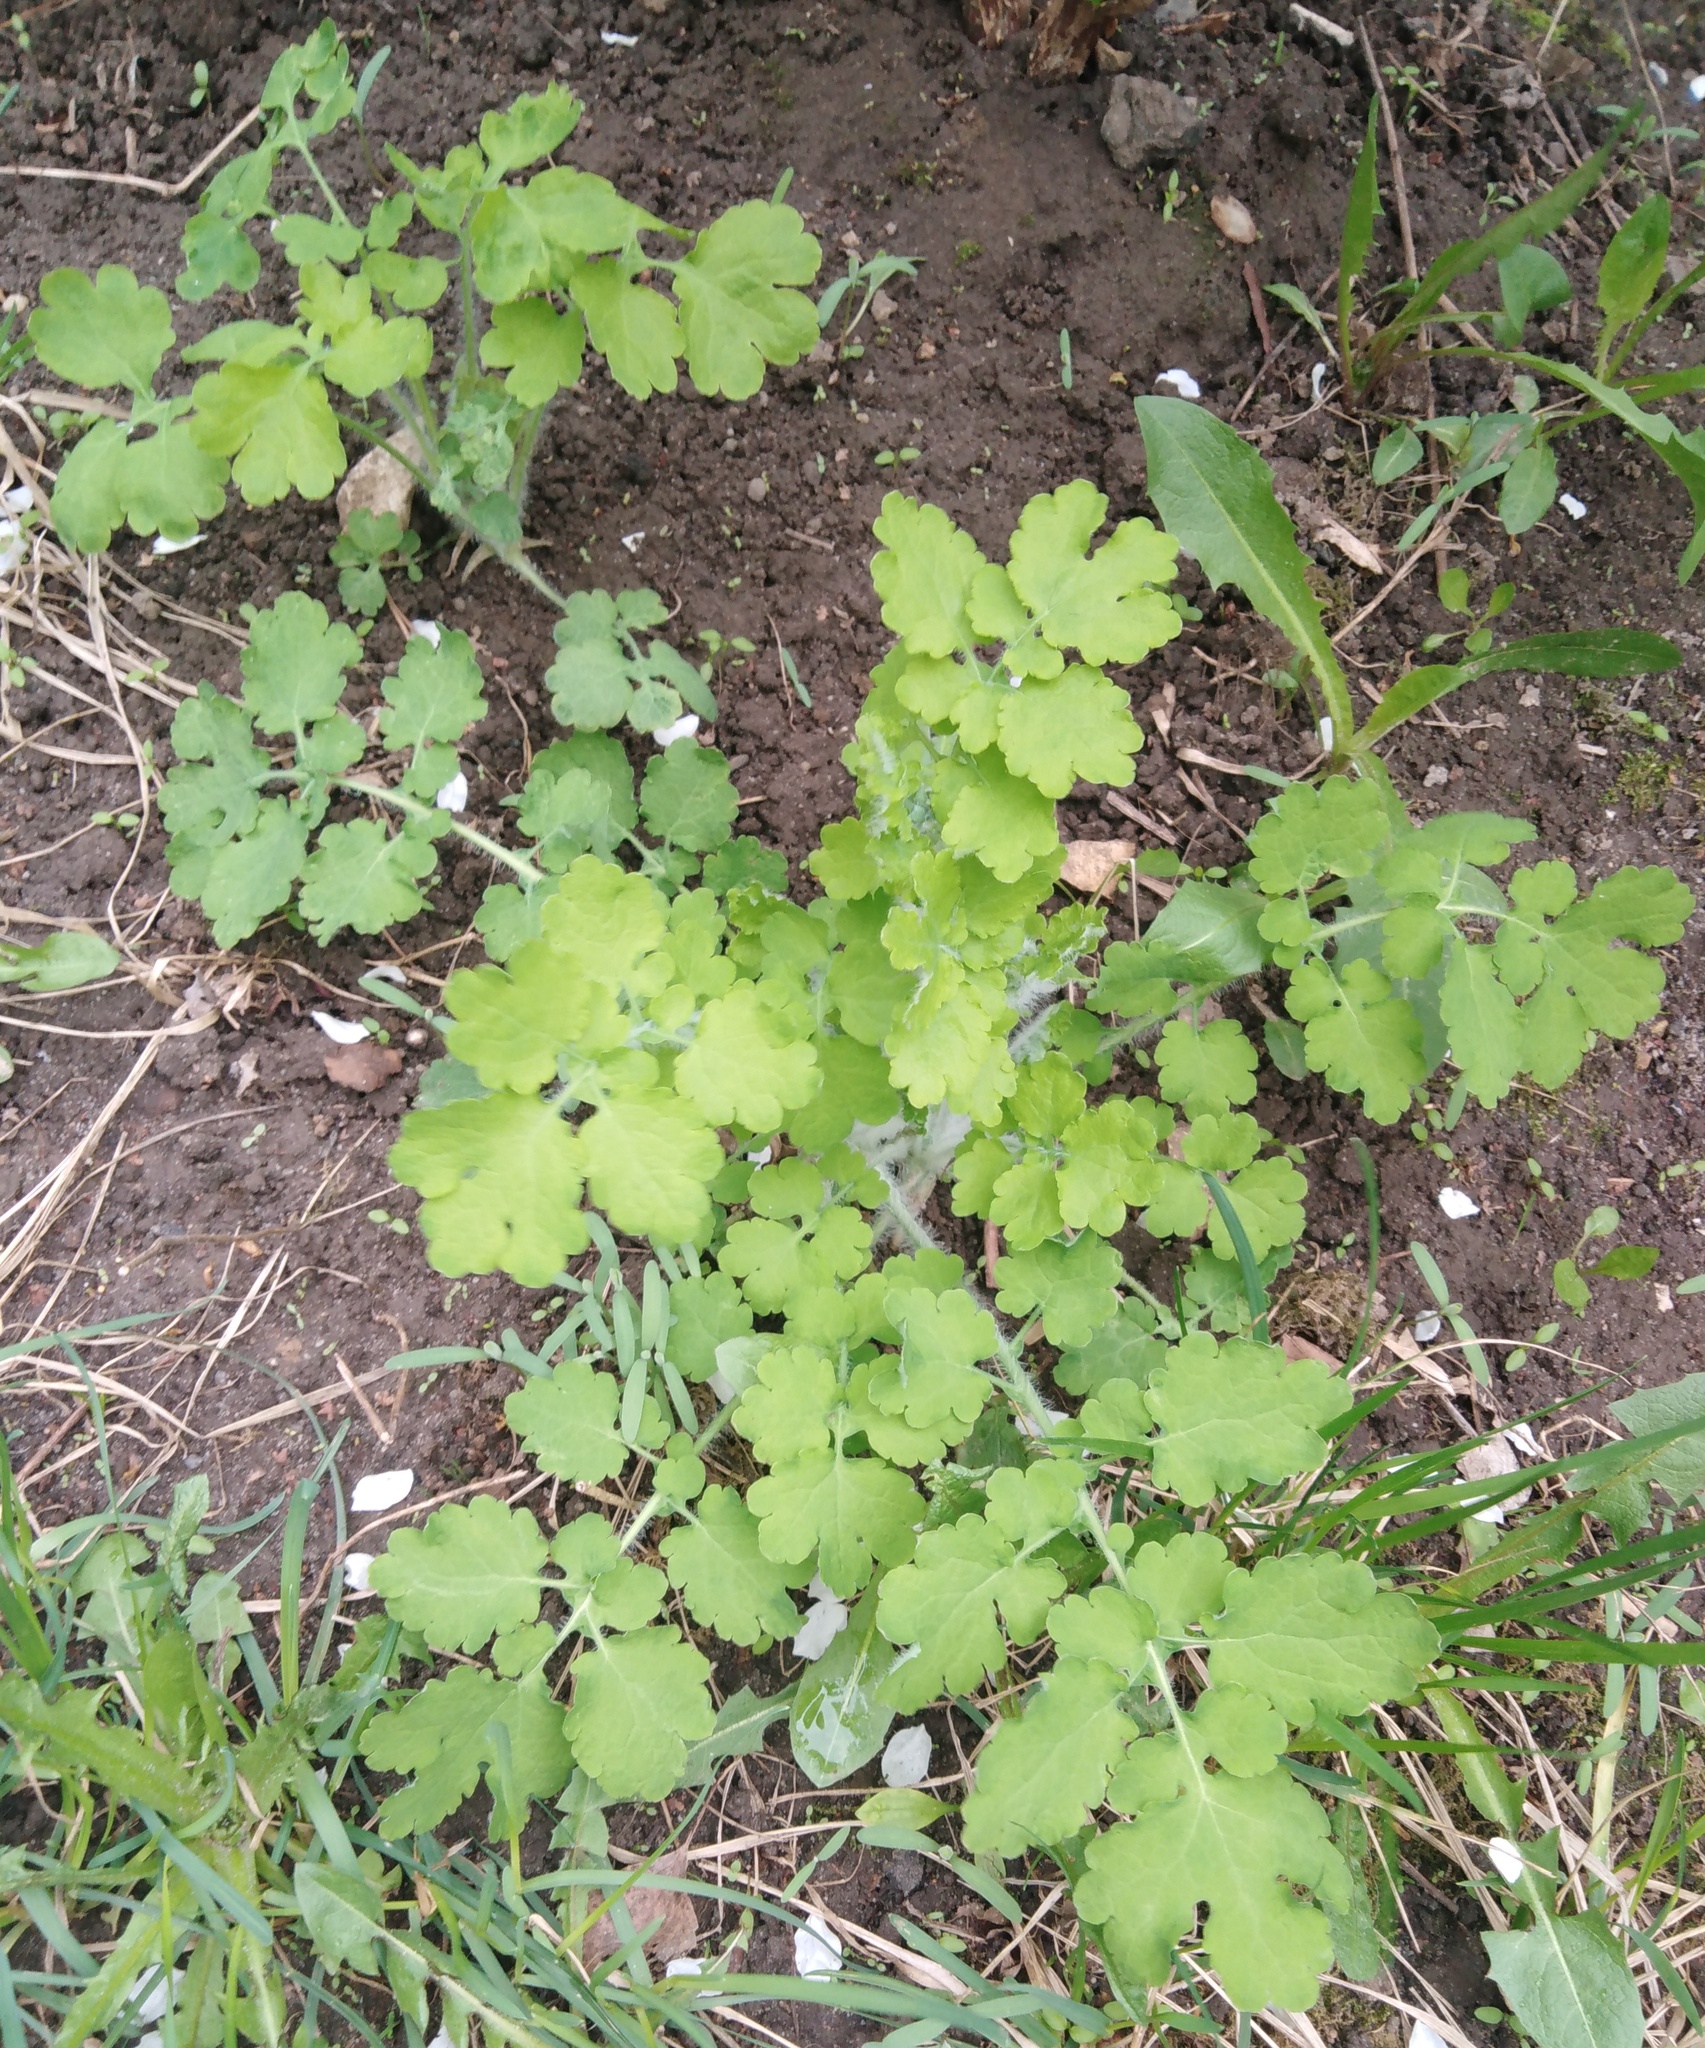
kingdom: Plantae
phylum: Tracheophyta
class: Magnoliopsida
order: Ranunculales
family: Papaveraceae
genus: Chelidonium
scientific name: Chelidonium majus
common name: Greater celandine
